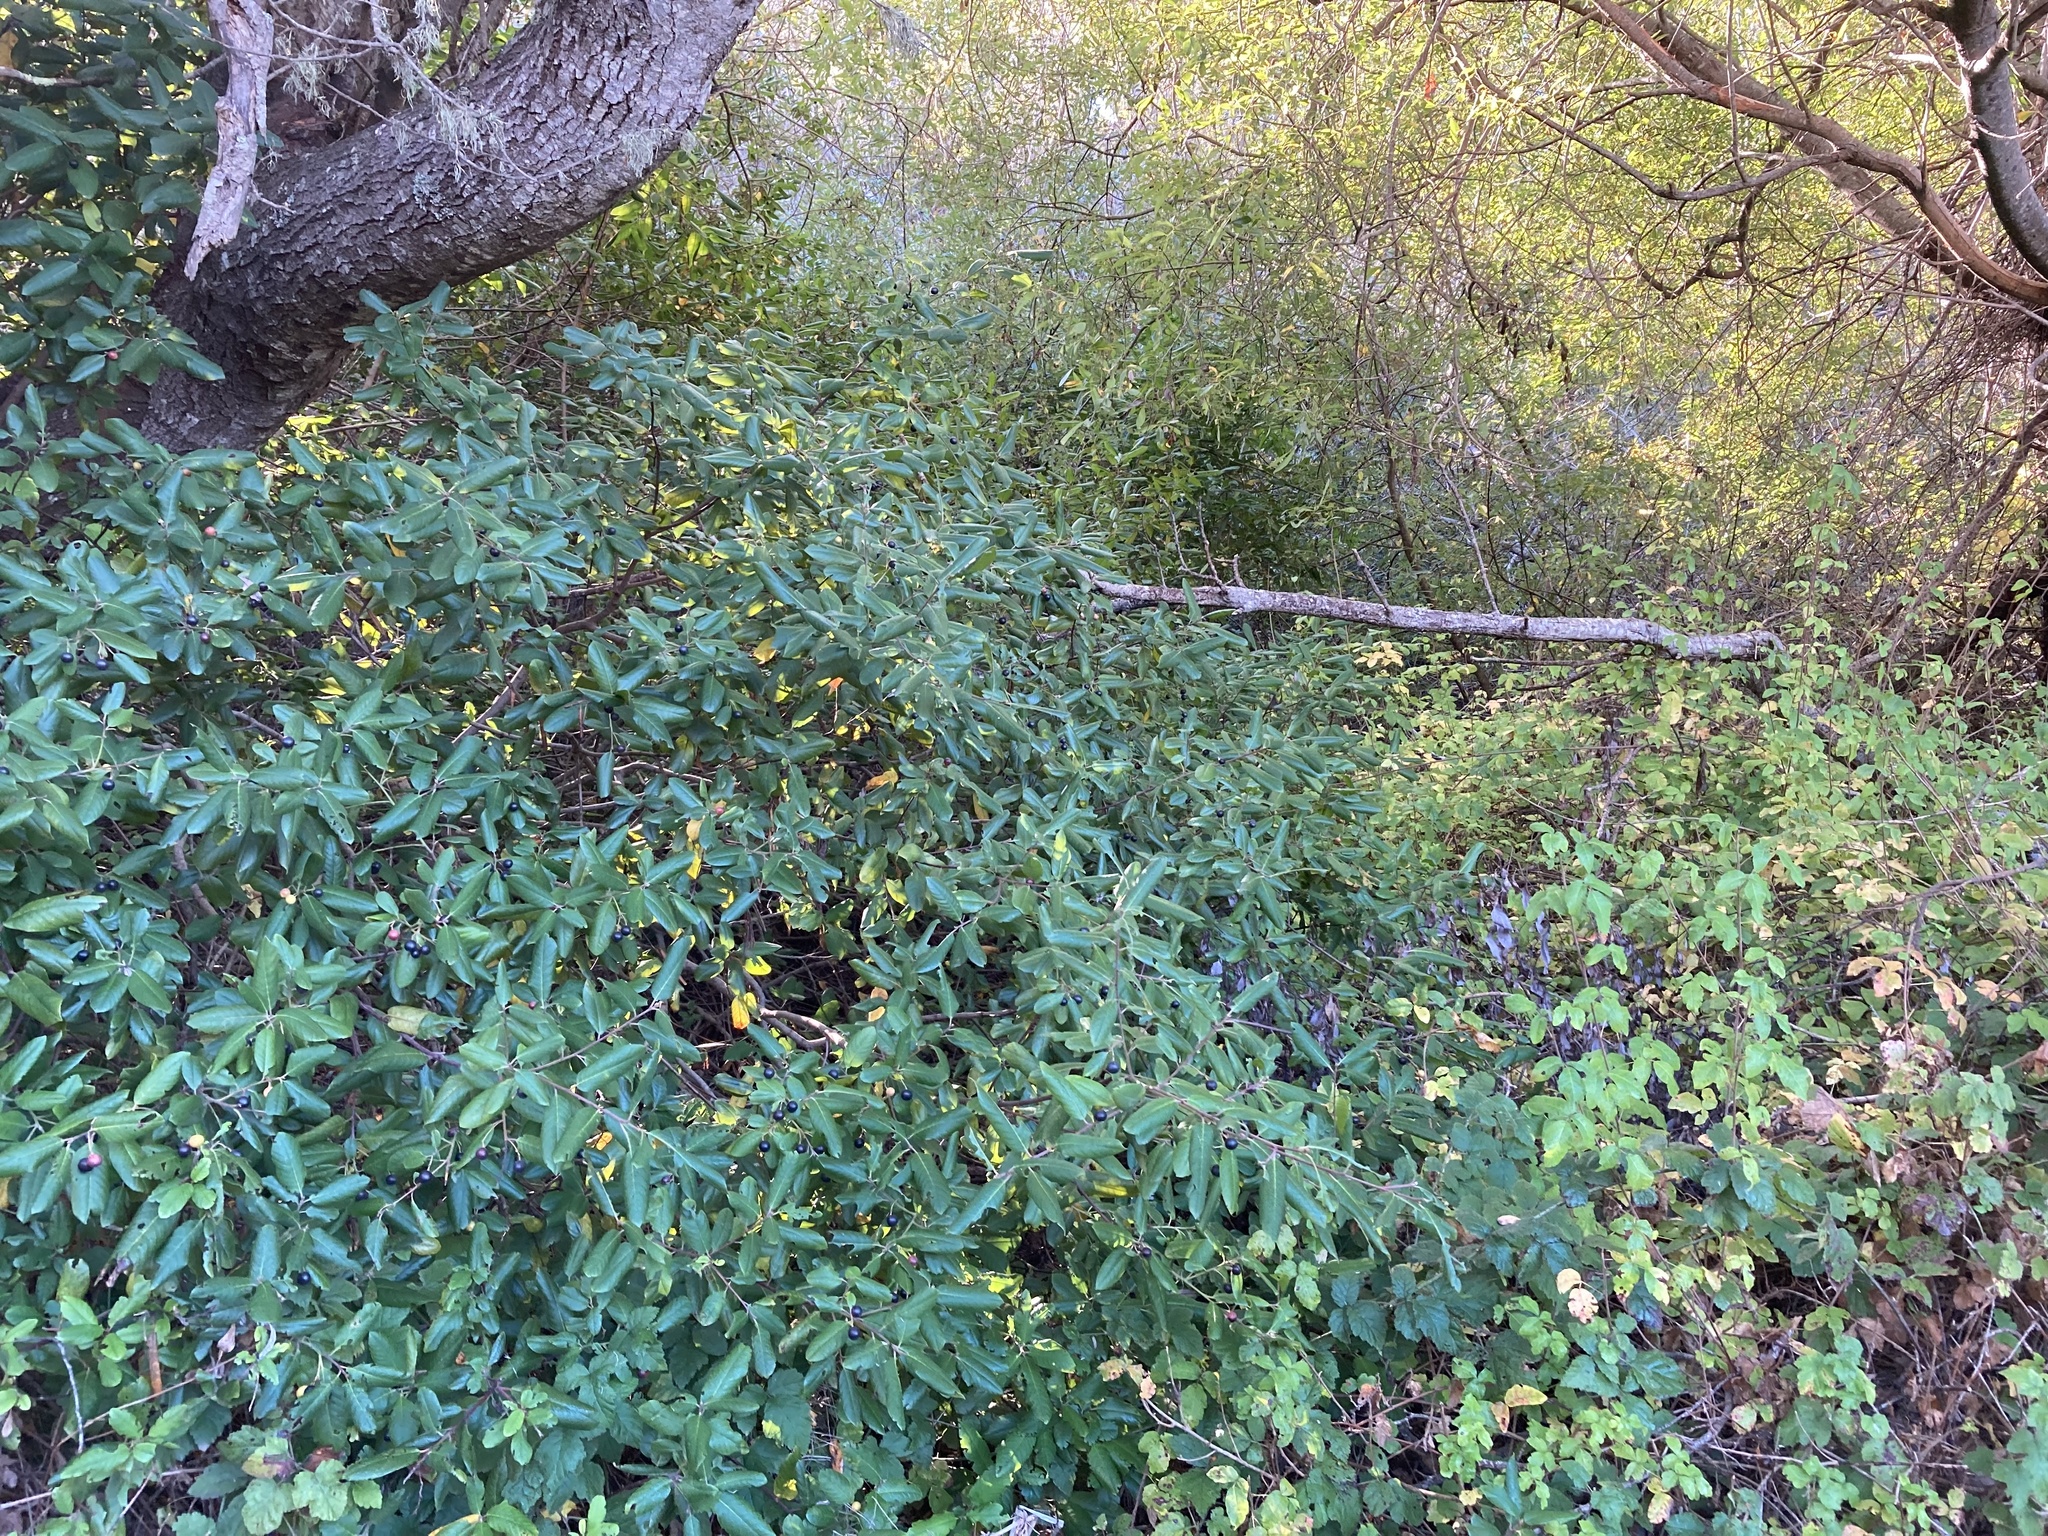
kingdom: Plantae
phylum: Tracheophyta
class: Magnoliopsida
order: Rosales
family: Rhamnaceae
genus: Frangula
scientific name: Frangula californica
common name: California buckthorn
